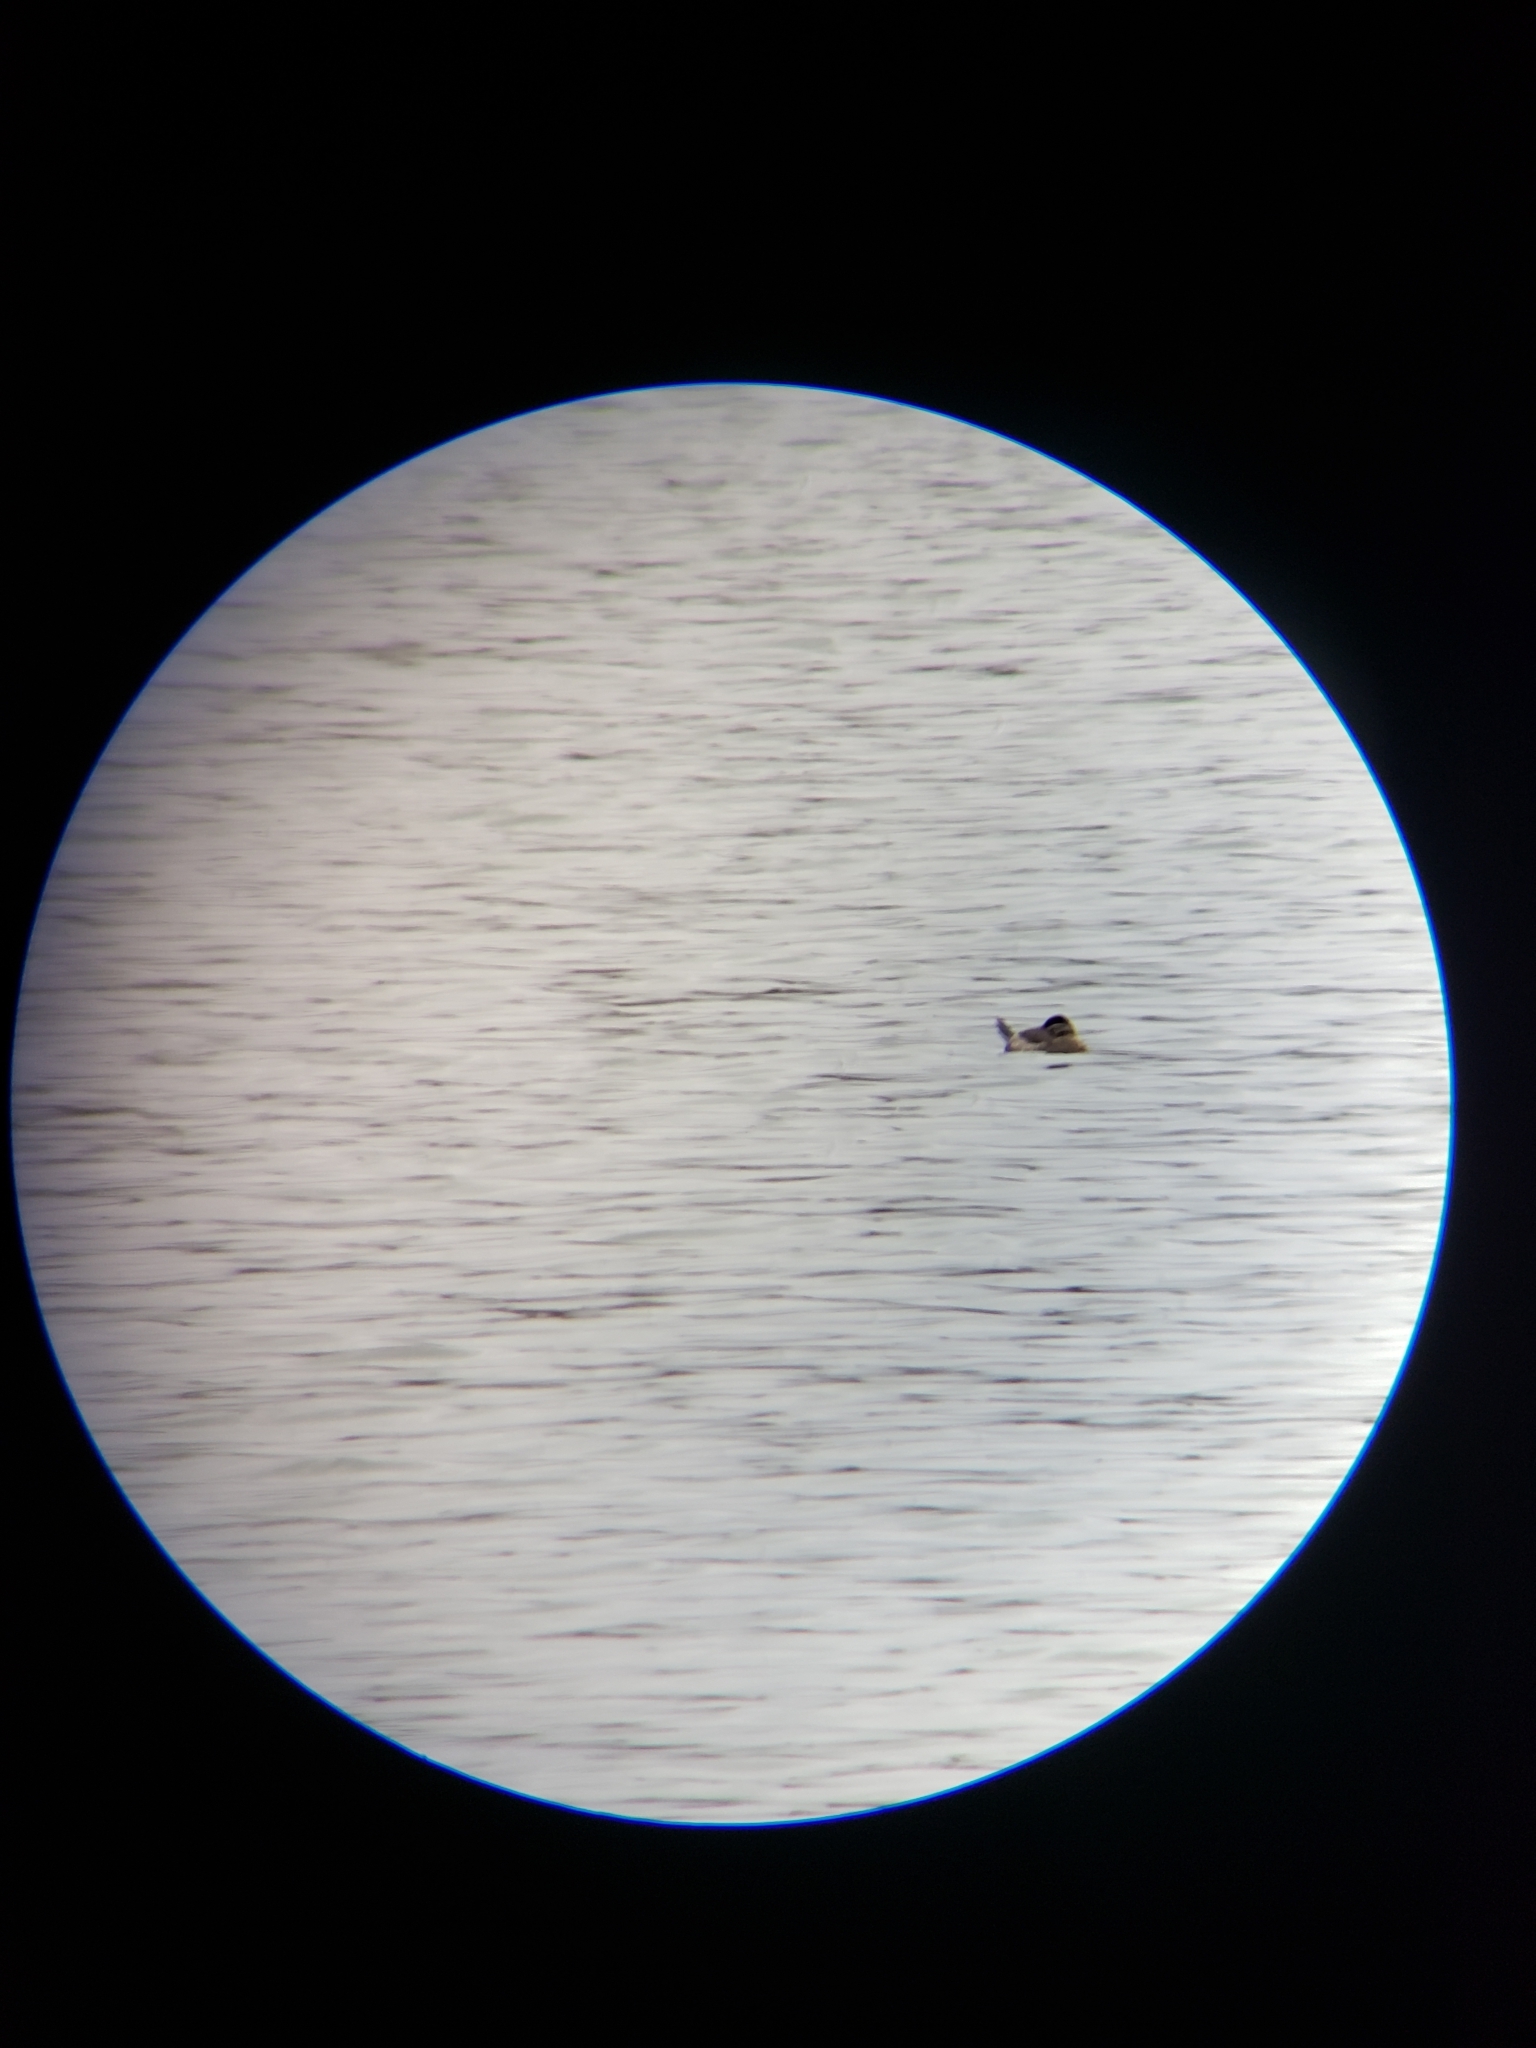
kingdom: Animalia
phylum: Chordata
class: Aves
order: Anseriformes
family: Anatidae
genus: Oxyura
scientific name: Oxyura jamaicensis
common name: Ruddy duck
